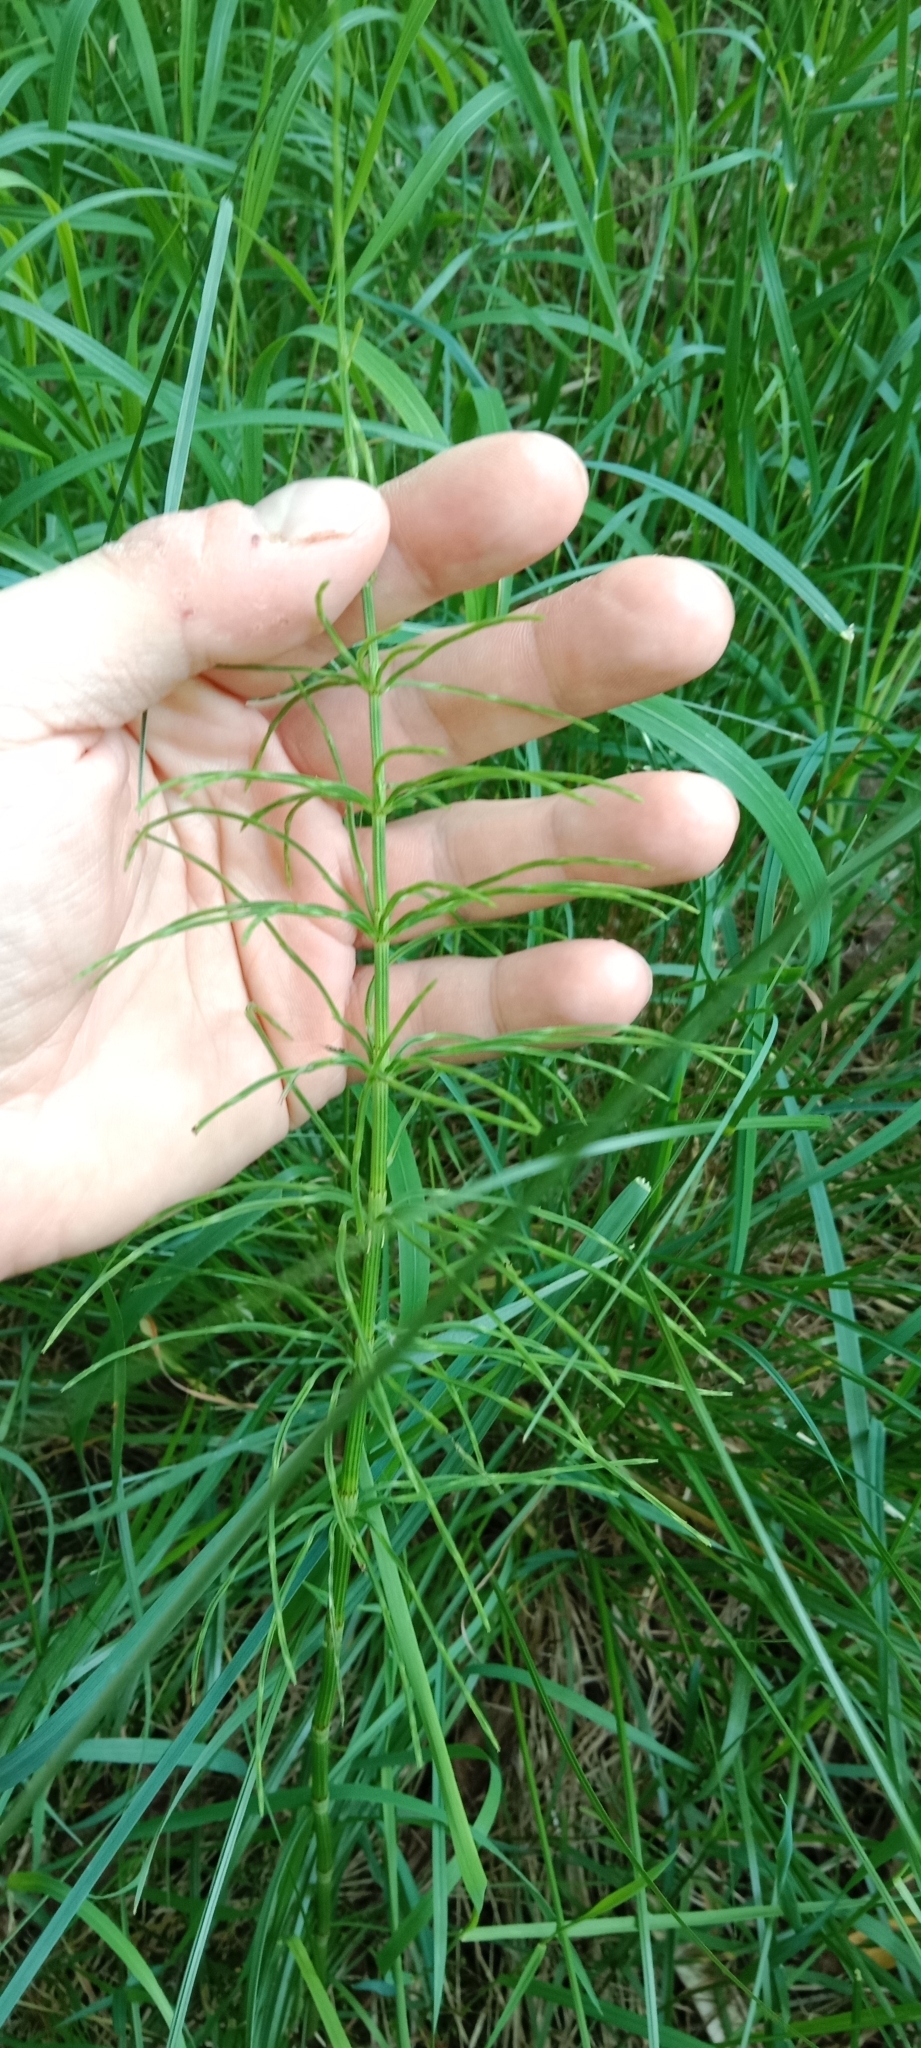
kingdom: Plantae
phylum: Tracheophyta
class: Polypodiopsida
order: Equisetales
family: Equisetaceae
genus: Equisetum
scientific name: Equisetum arvense
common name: Field horsetail
